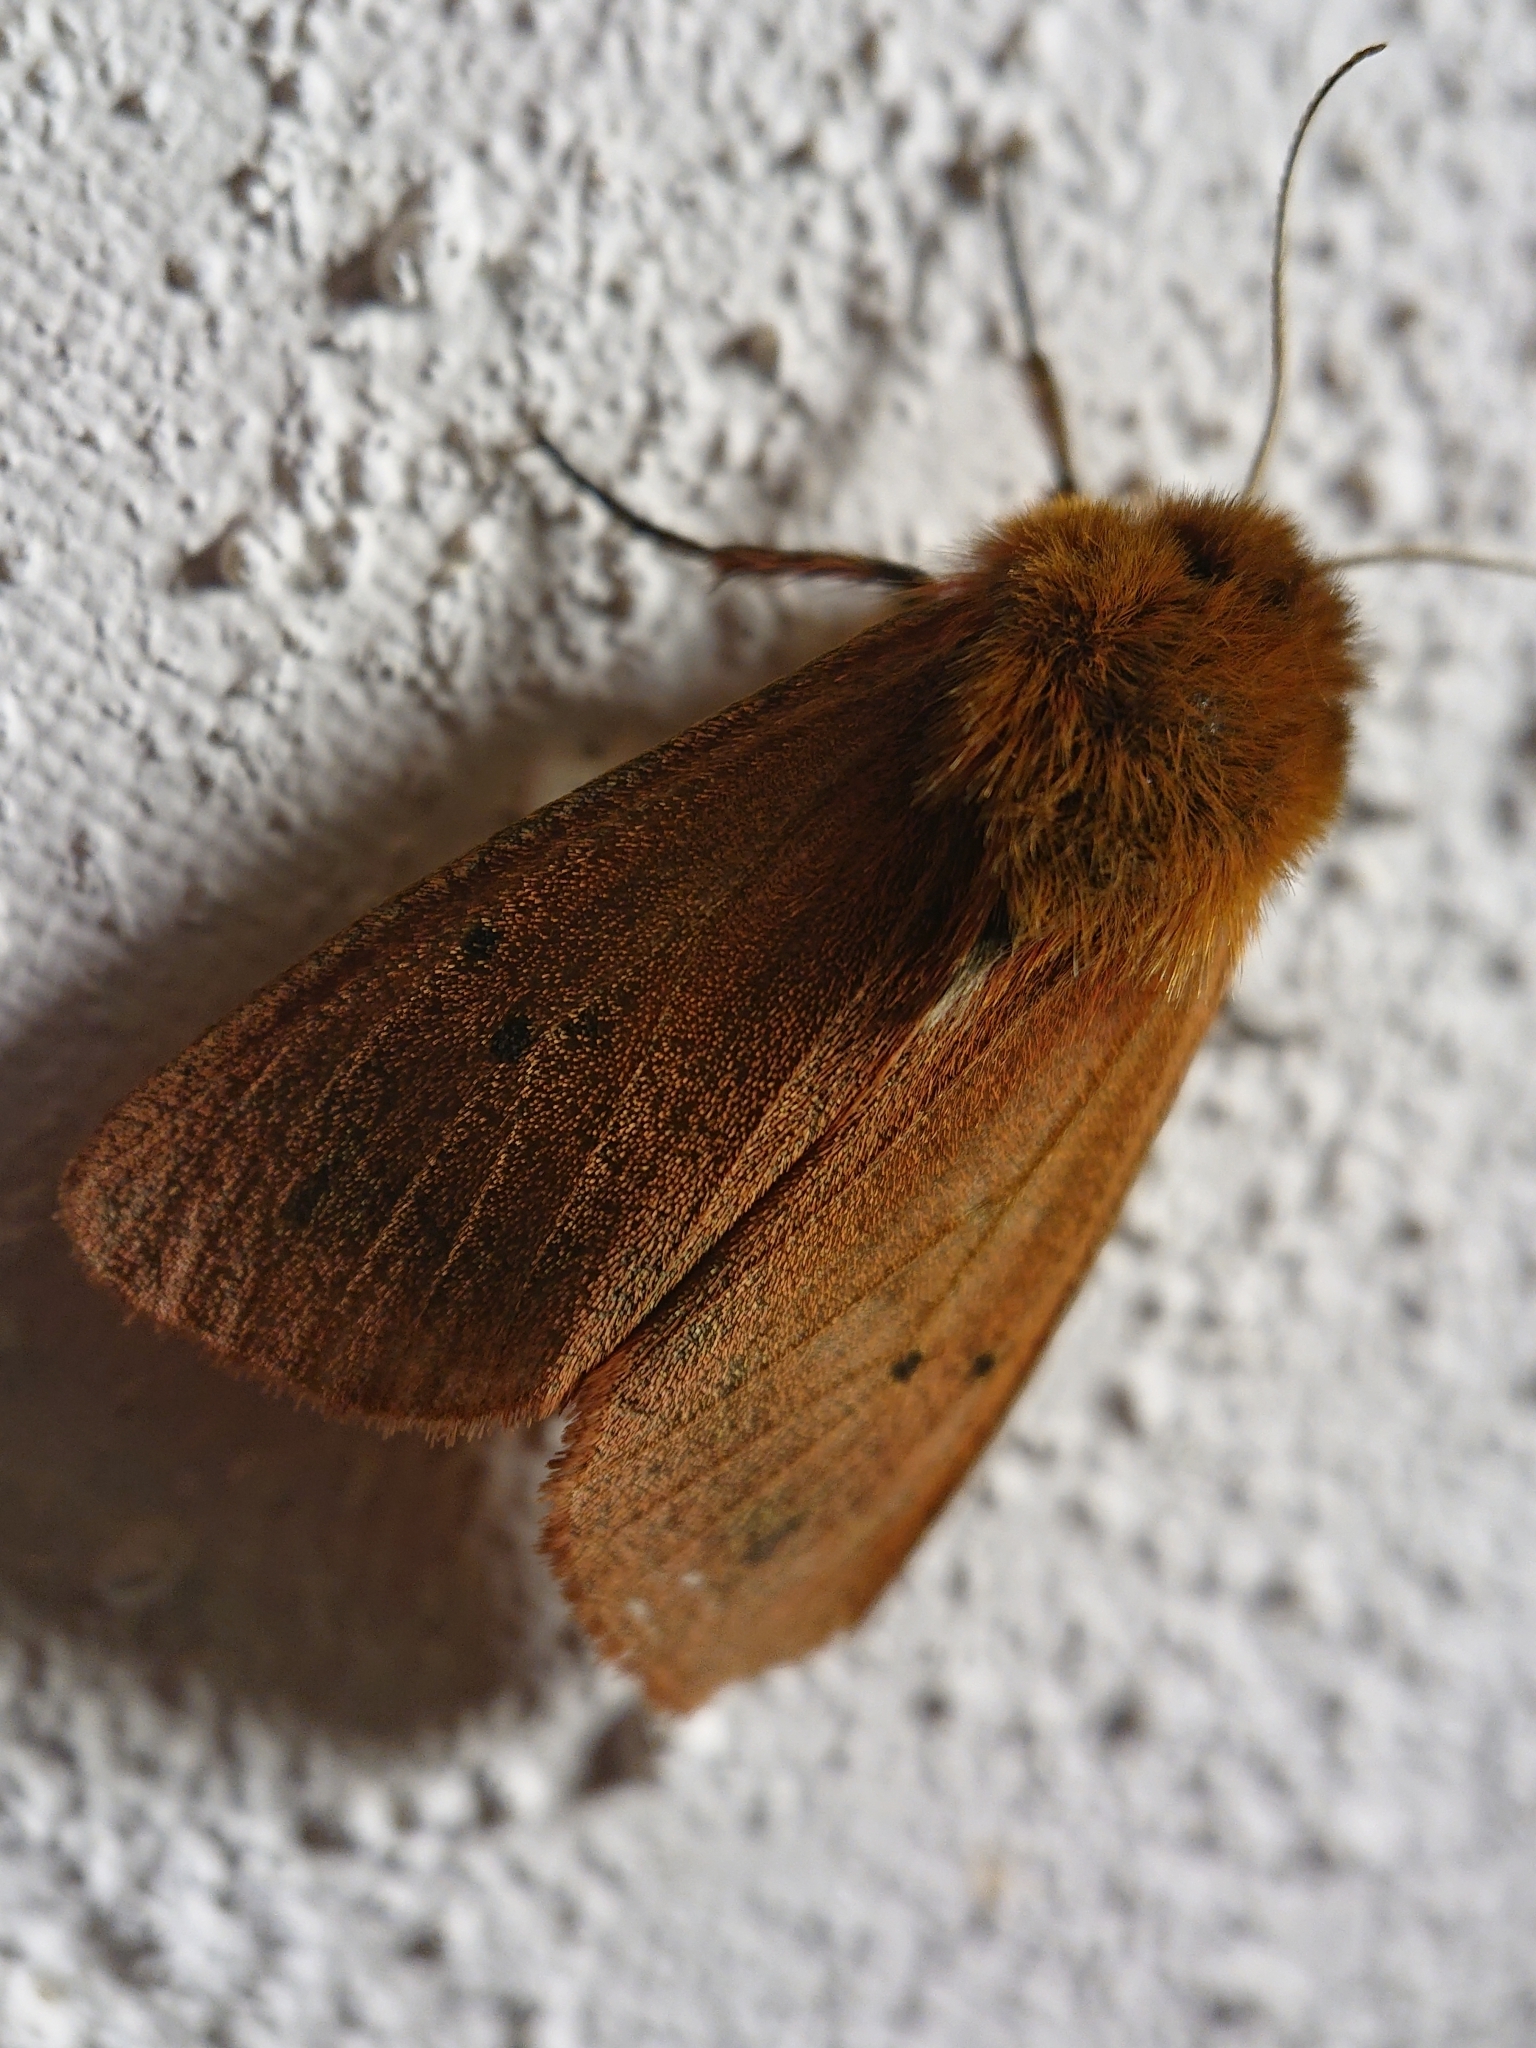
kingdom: Animalia
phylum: Arthropoda
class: Insecta
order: Lepidoptera
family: Erebidae
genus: Phragmatobia
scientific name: Phragmatobia fuliginosa
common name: Ruby tiger
